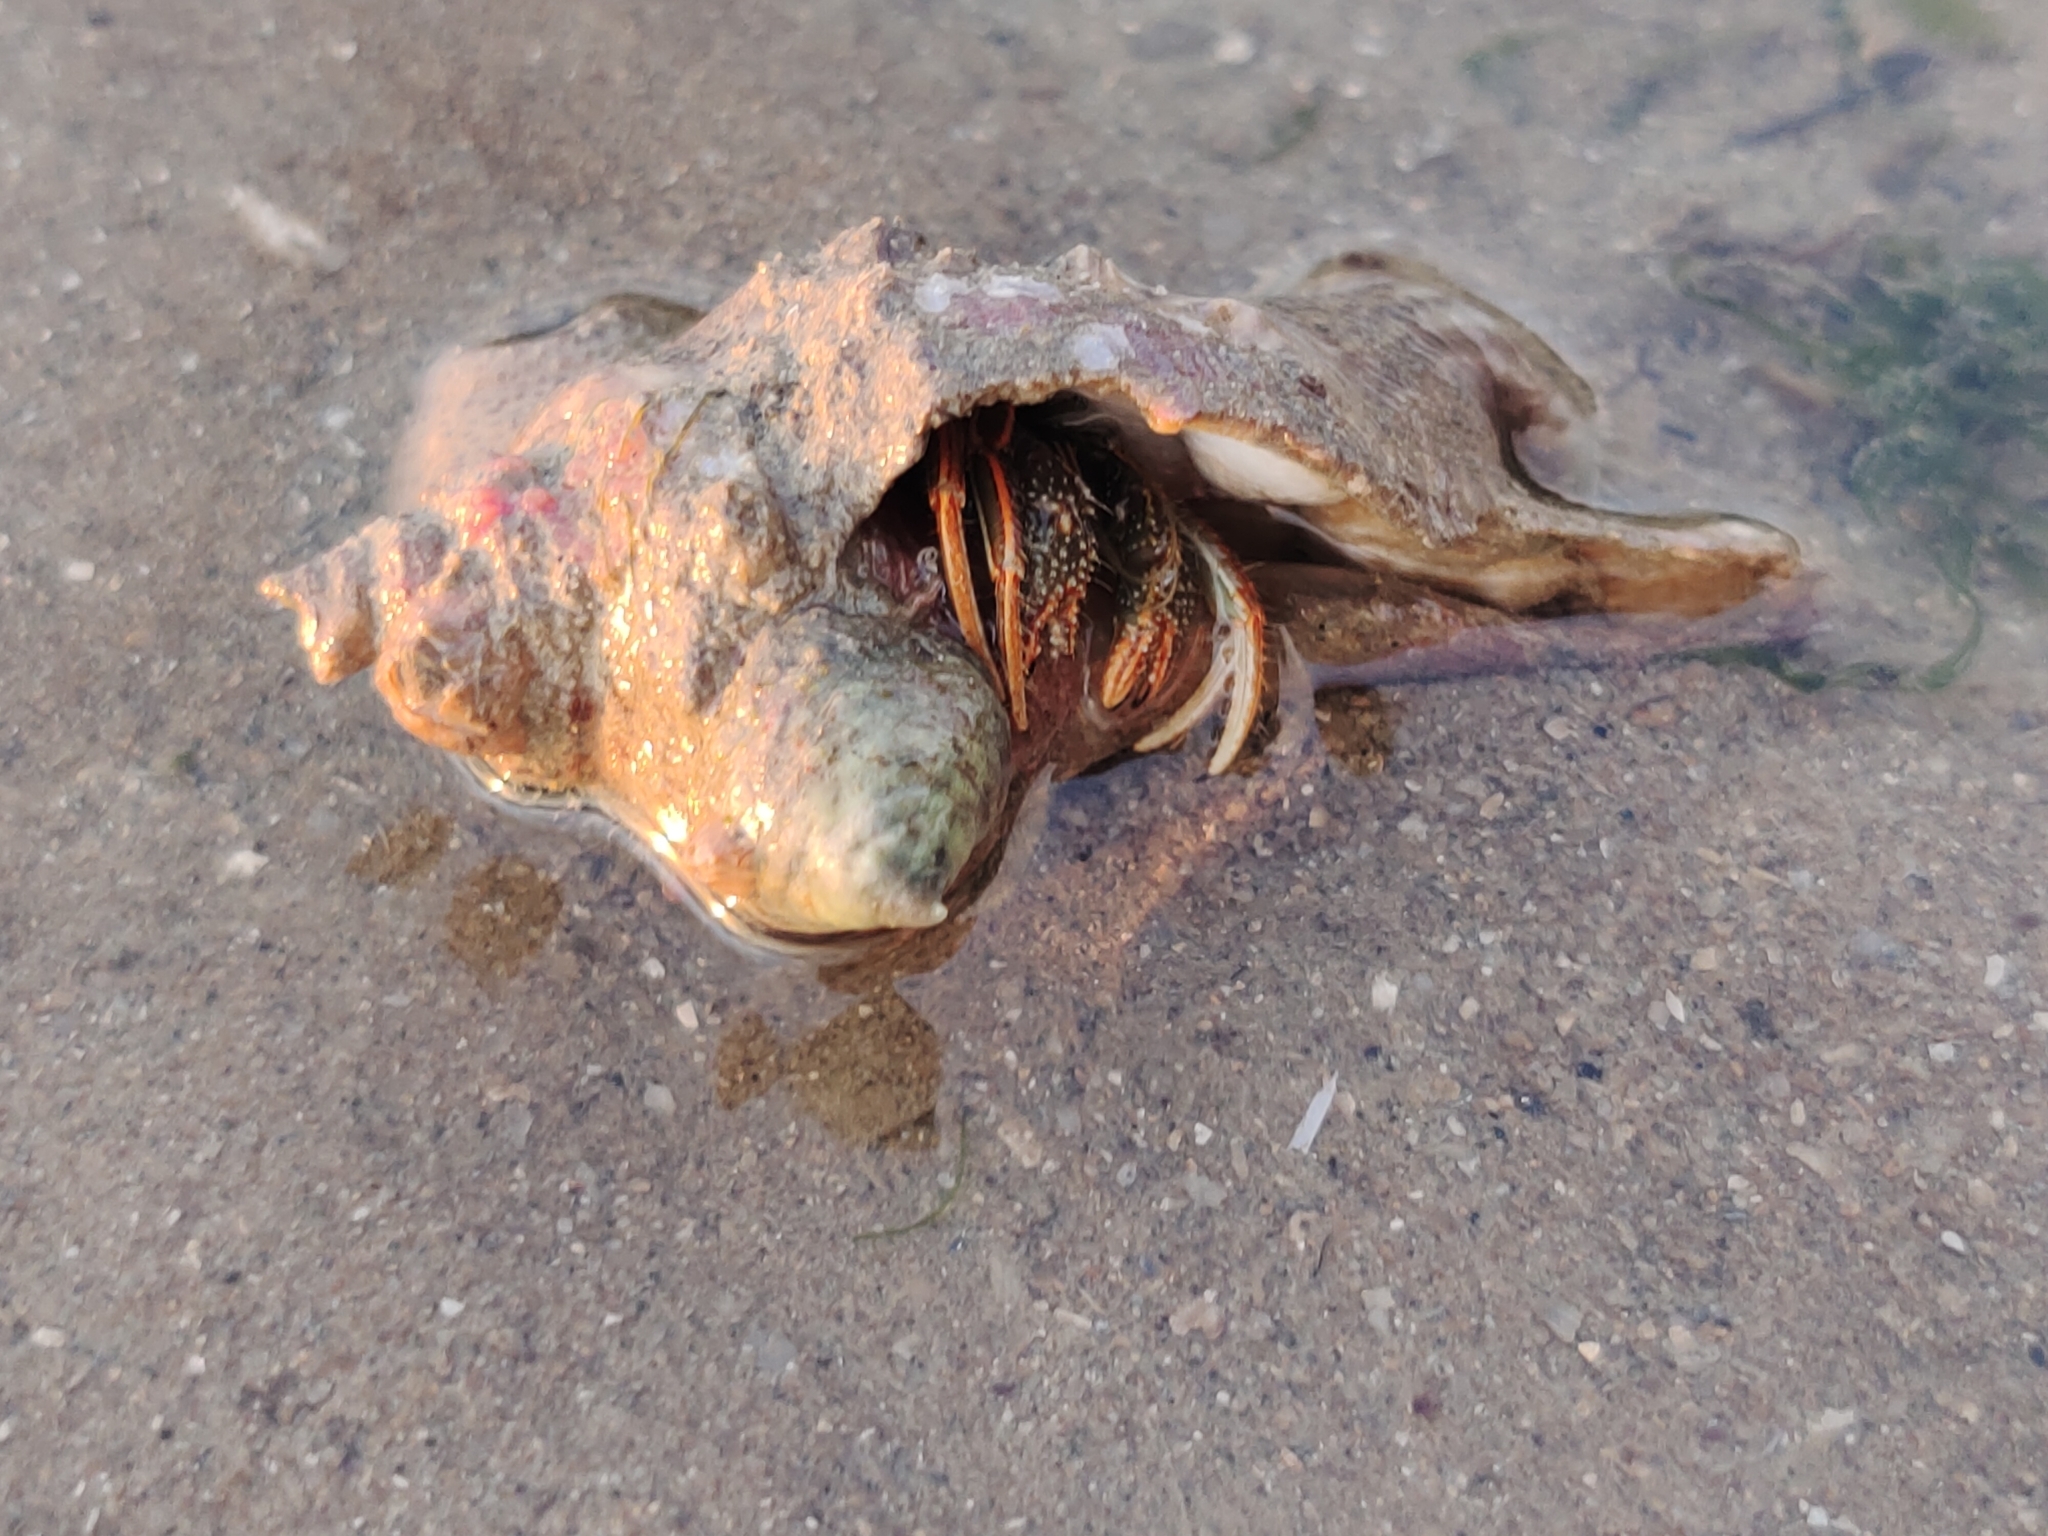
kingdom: Animalia
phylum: Arthropoda
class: Malacostraca
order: Decapoda
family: Diogenidae
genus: Clibanarius
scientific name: Clibanarius infraspinatus
